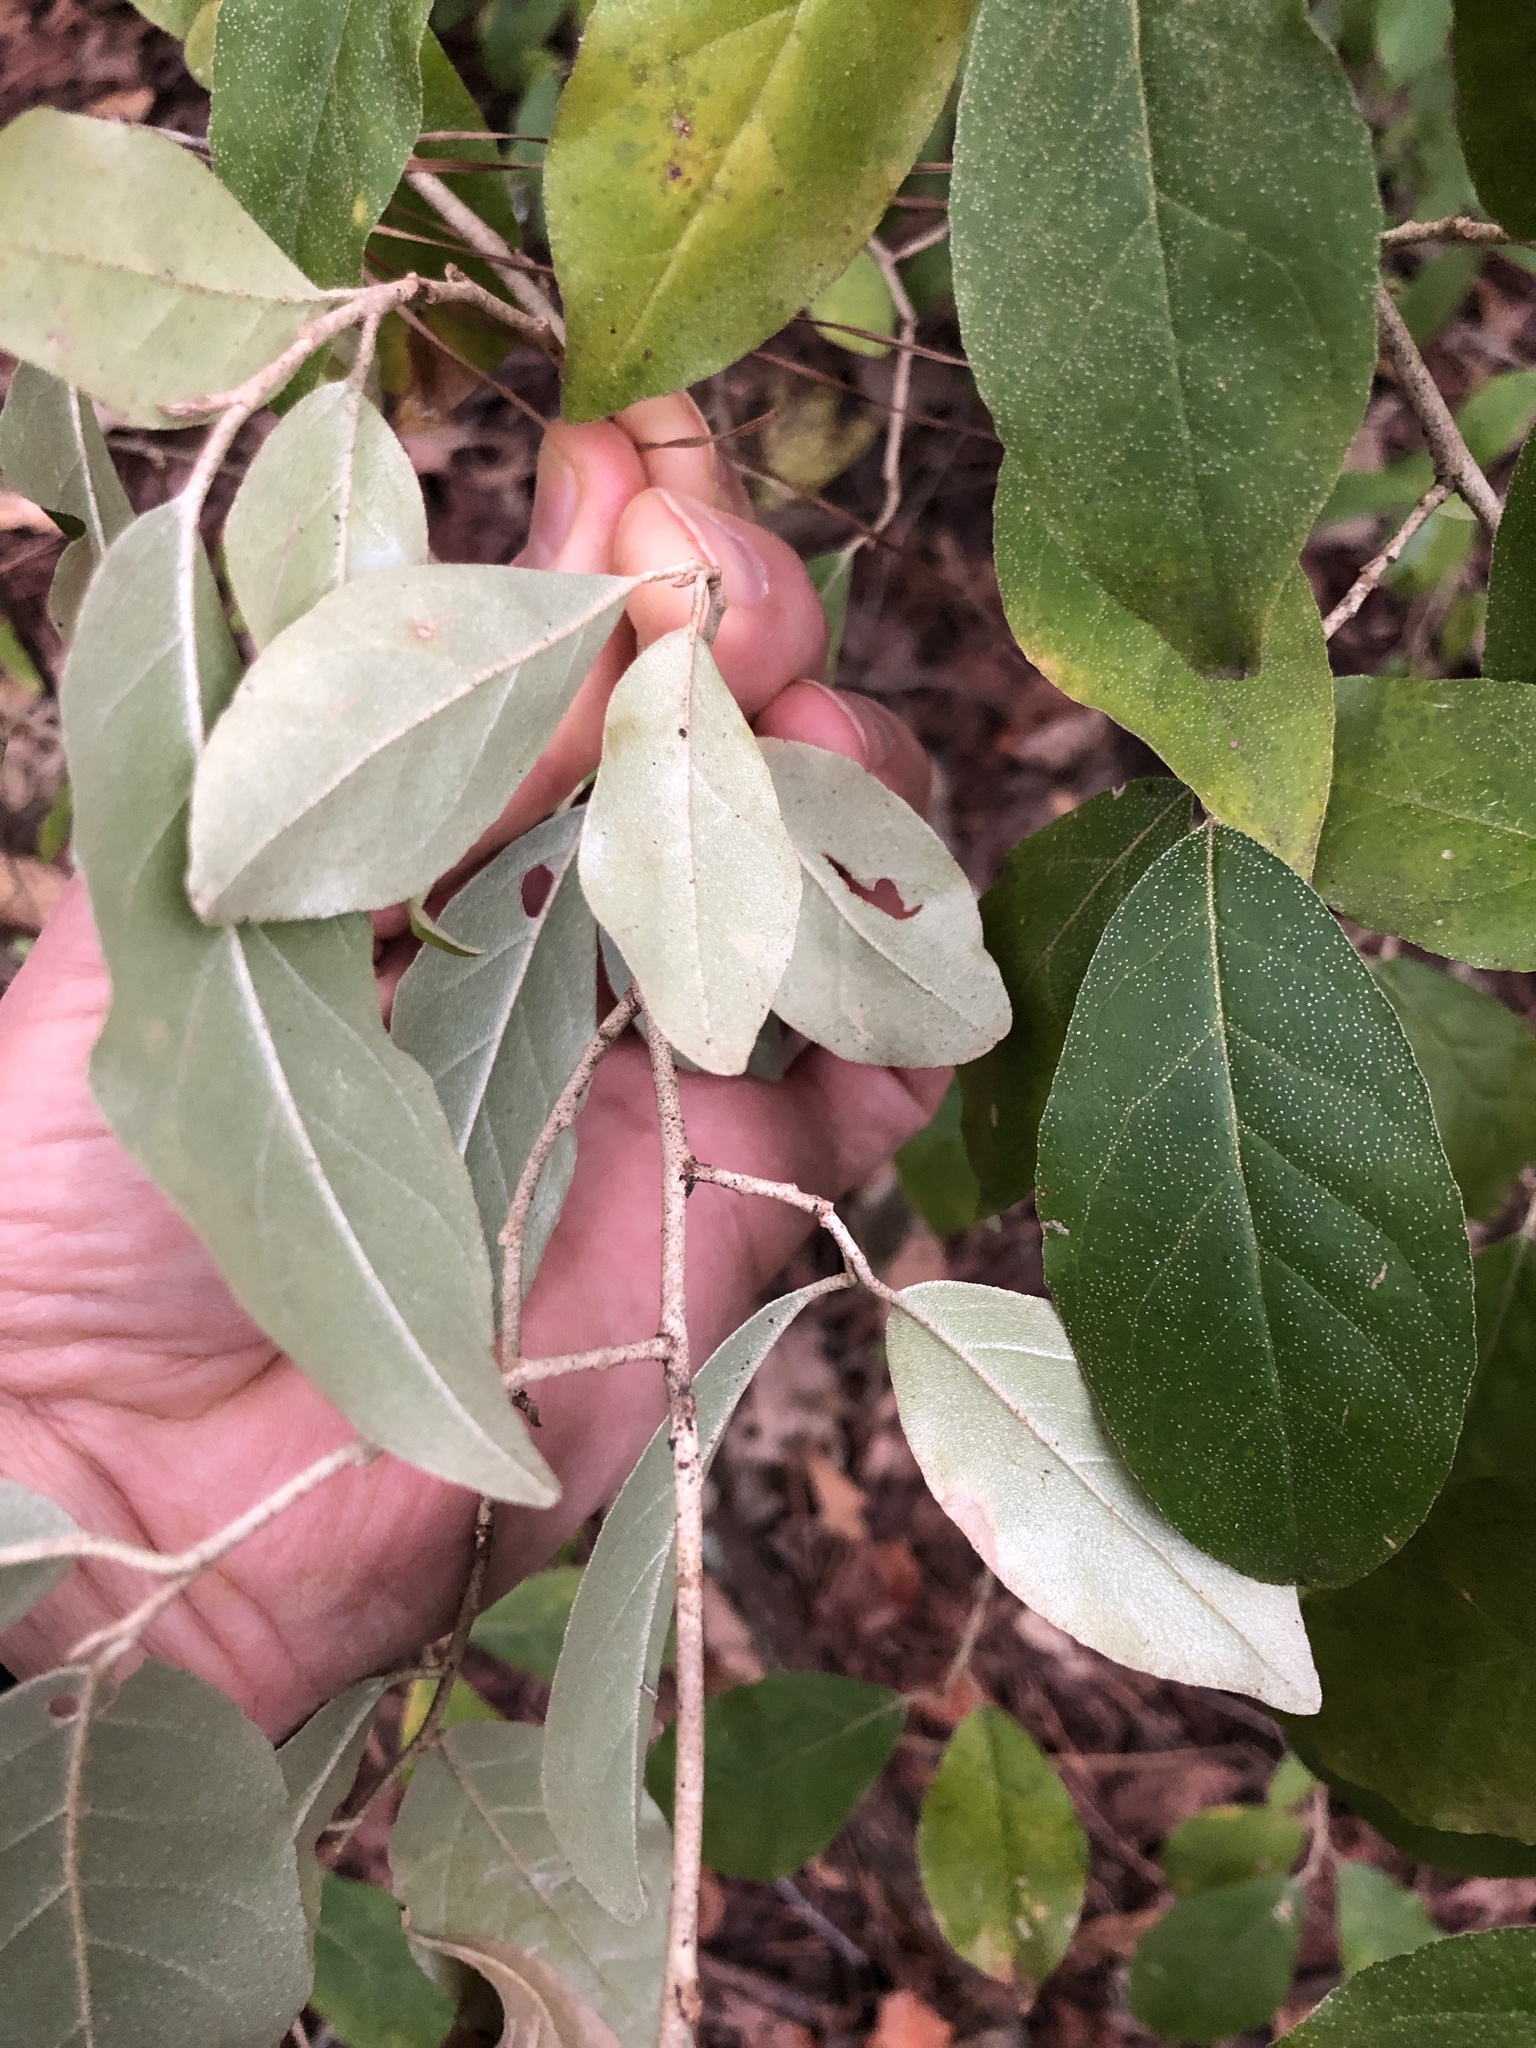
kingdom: Plantae
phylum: Tracheophyta
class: Magnoliopsida
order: Rosales
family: Elaeagnaceae
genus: Elaeagnus
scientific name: Elaeagnus umbellata
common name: Autumn olive
